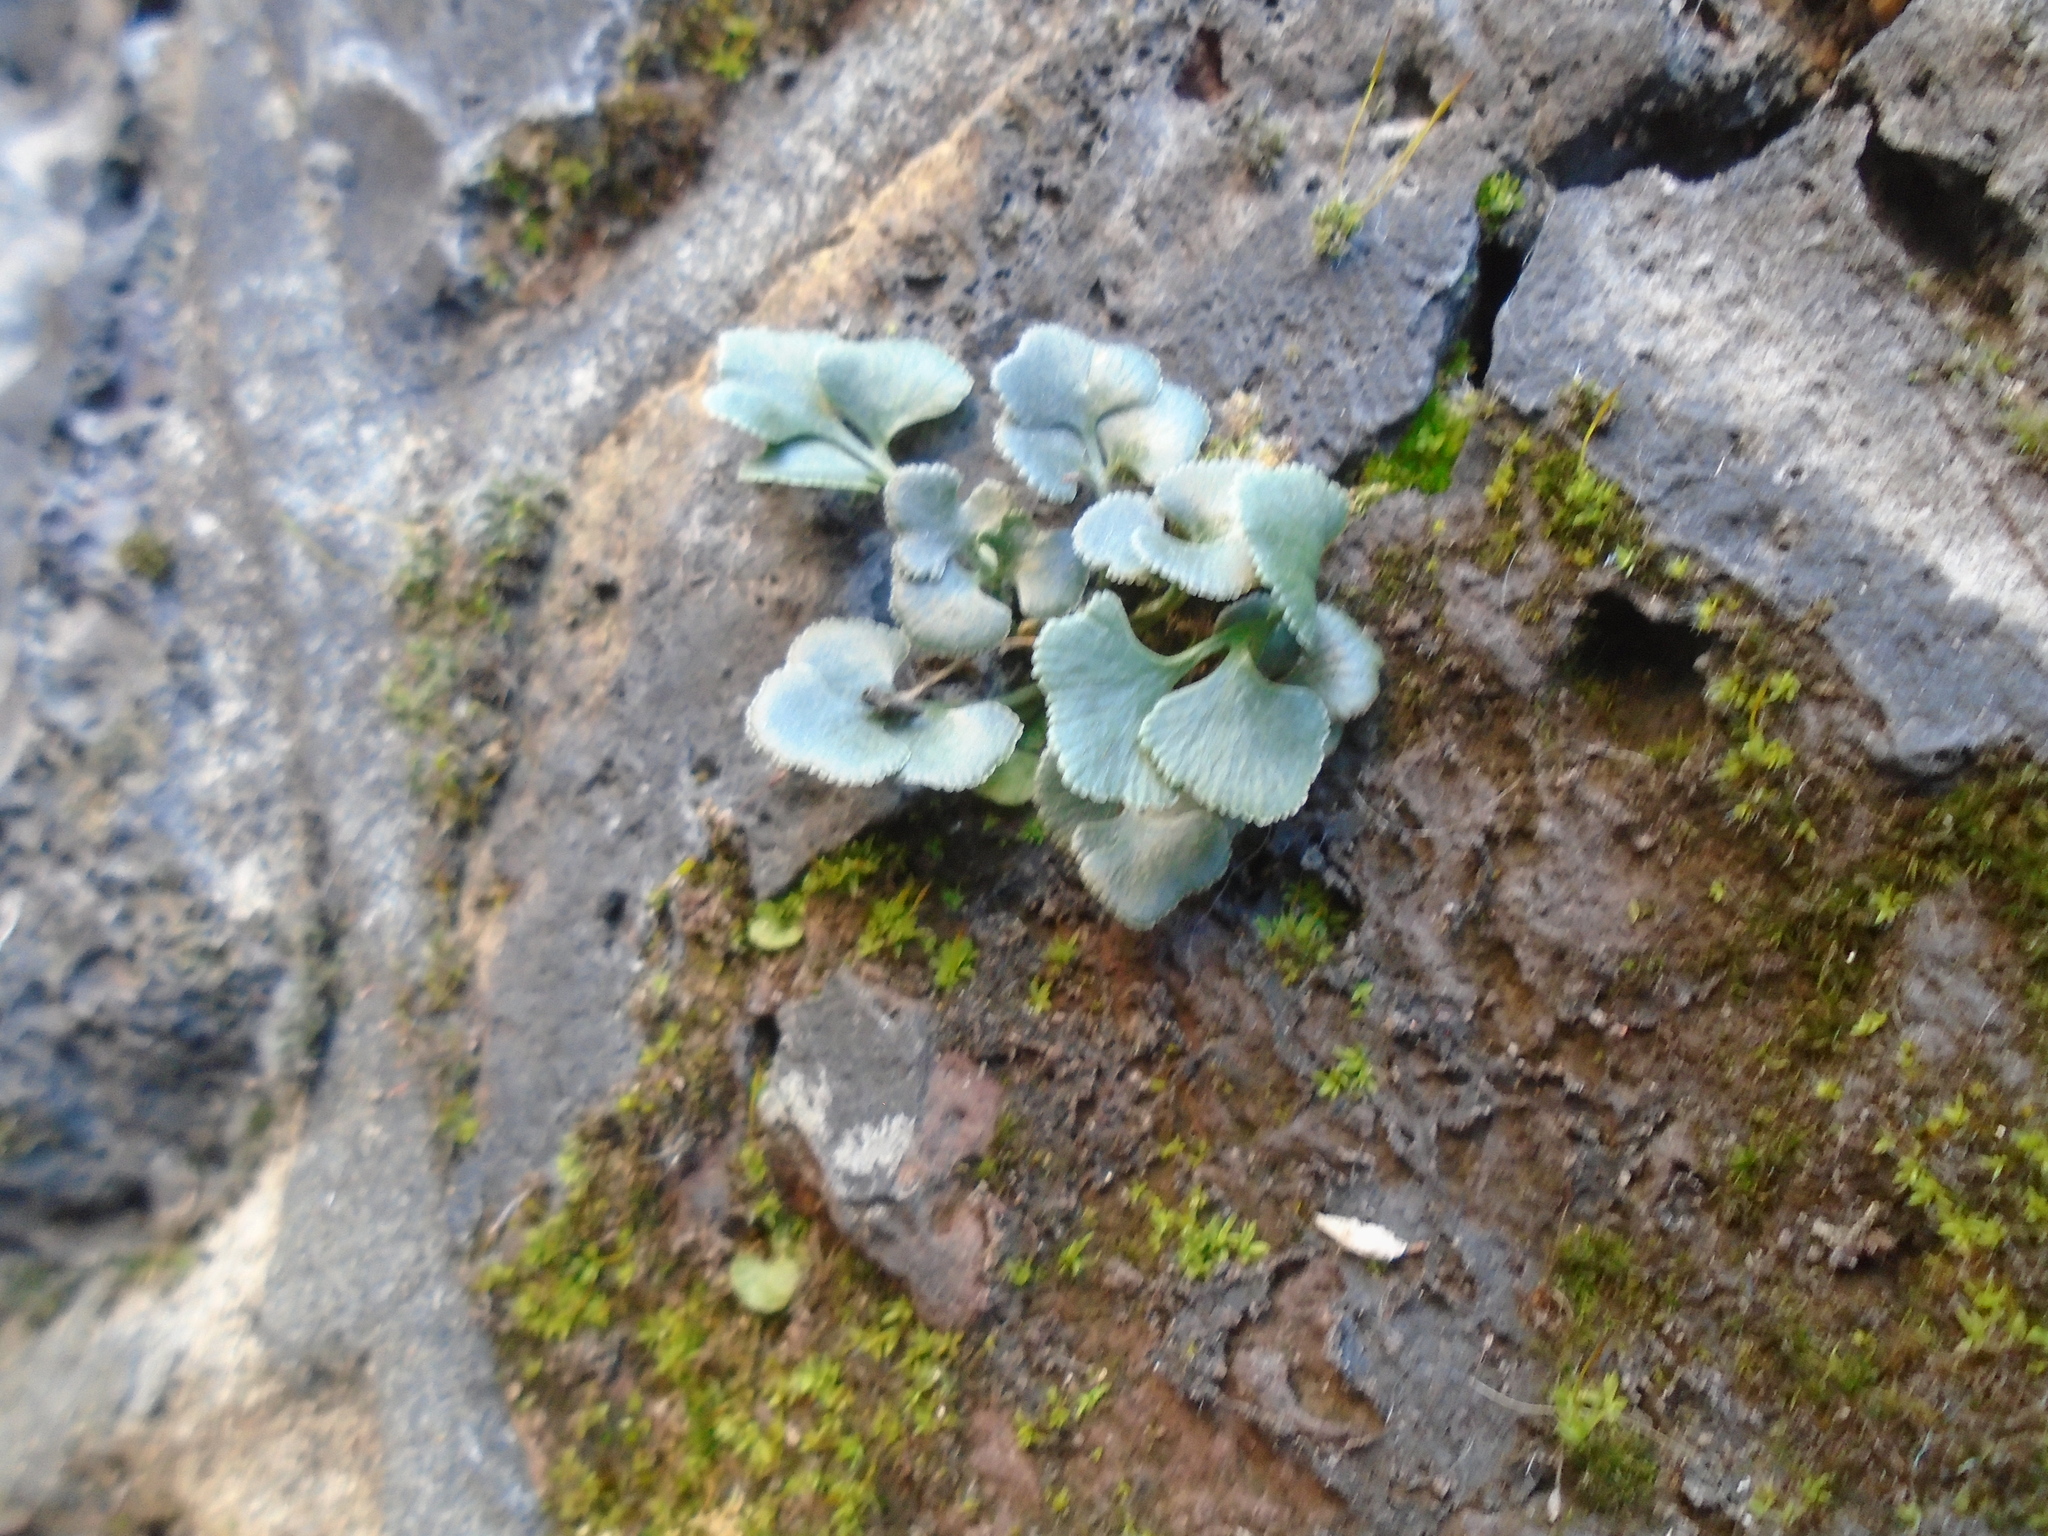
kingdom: Plantae
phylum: Tracheophyta
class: Polypodiopsida
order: Polypodiales
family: Aspleniaceae
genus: Asplenium
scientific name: Asplenium ruta-muraria
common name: Wall-rue
